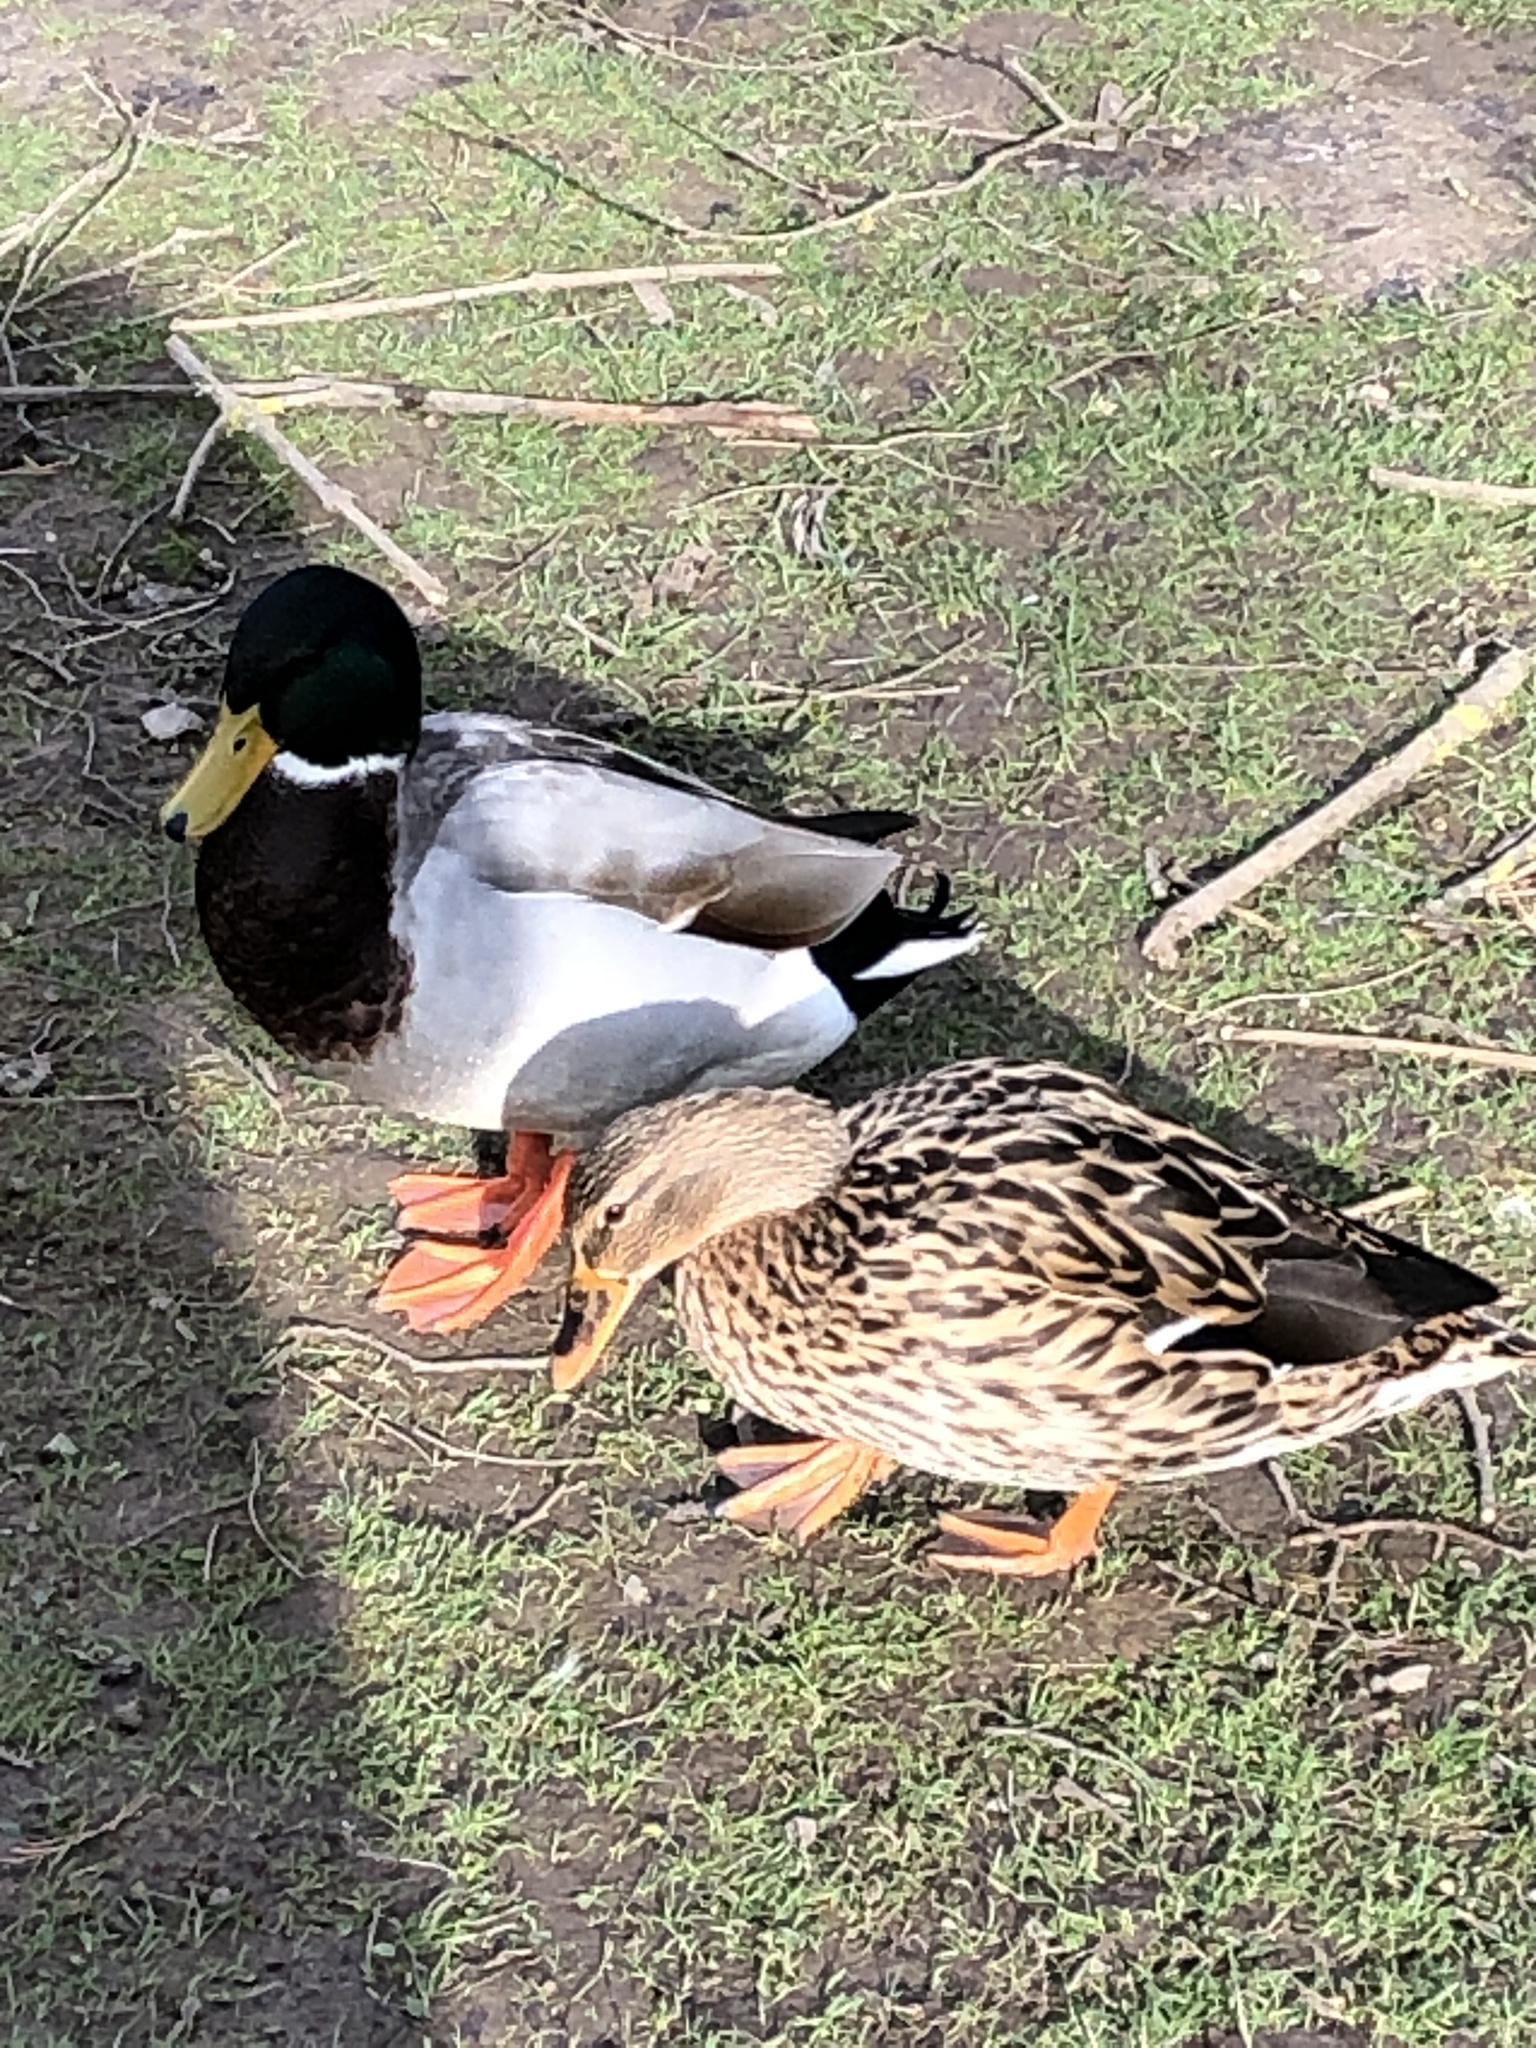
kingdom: Animalia
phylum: Chordata
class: Aves
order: Anseriformes
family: Anatidae
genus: Anas
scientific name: Anas platyrhynchos
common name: Mallard
